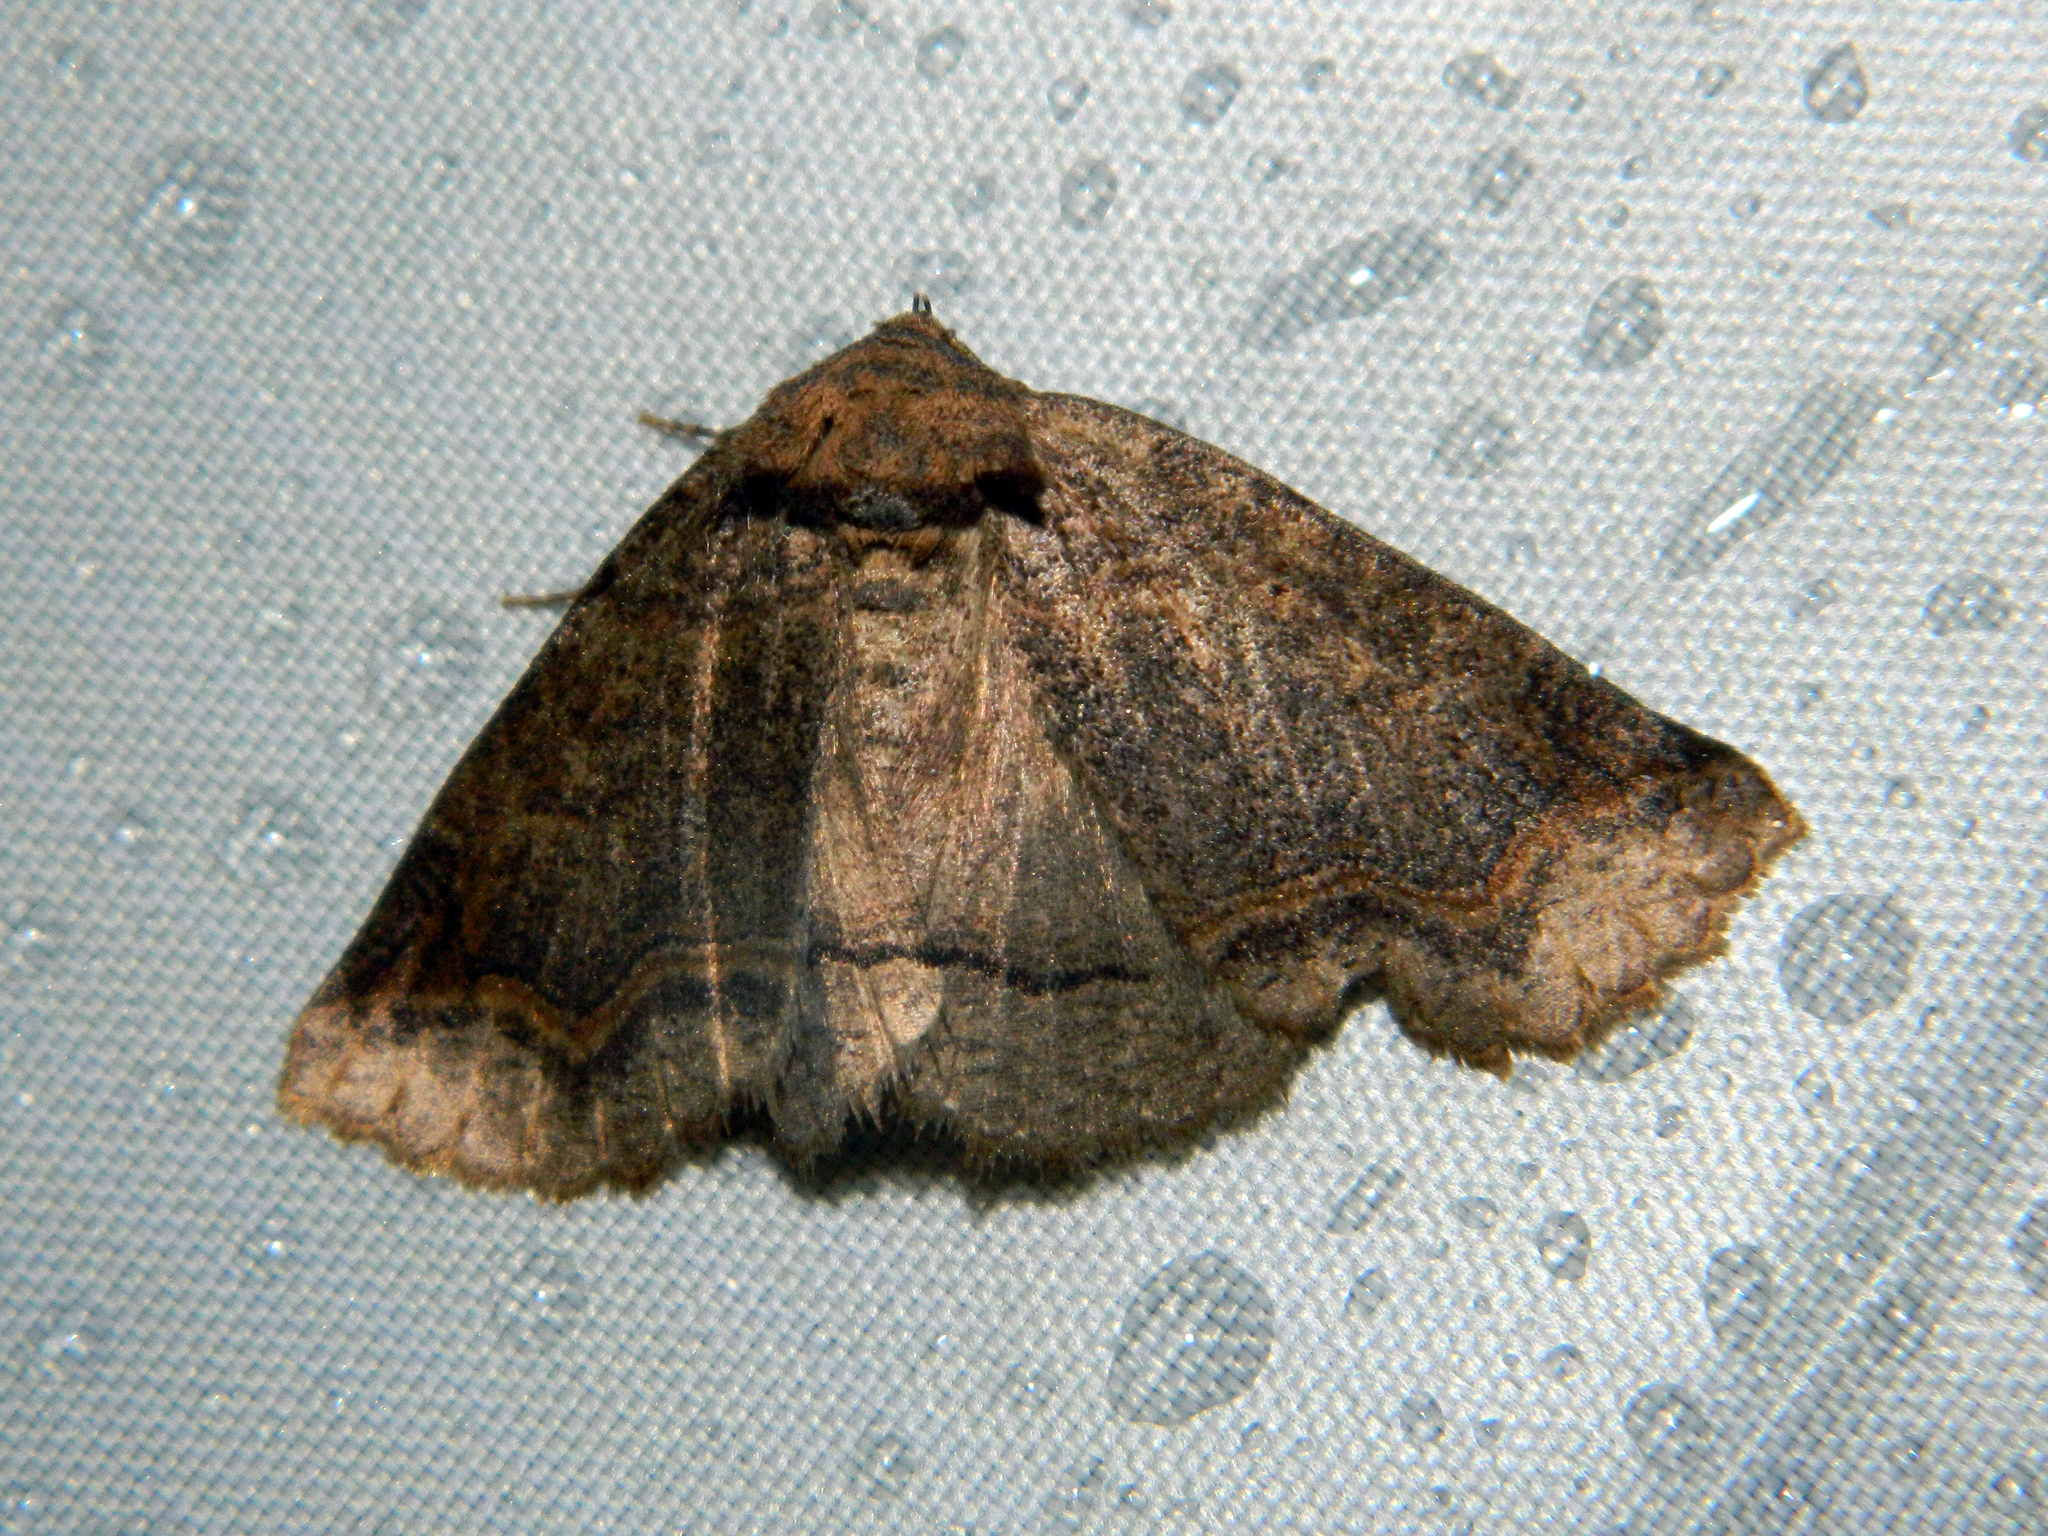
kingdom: Animalia
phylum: Arthropoda
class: Insecta
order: Lepidoptera
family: Erebidae
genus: Zale
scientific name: Zale unilineata
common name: One-lined zale moth
